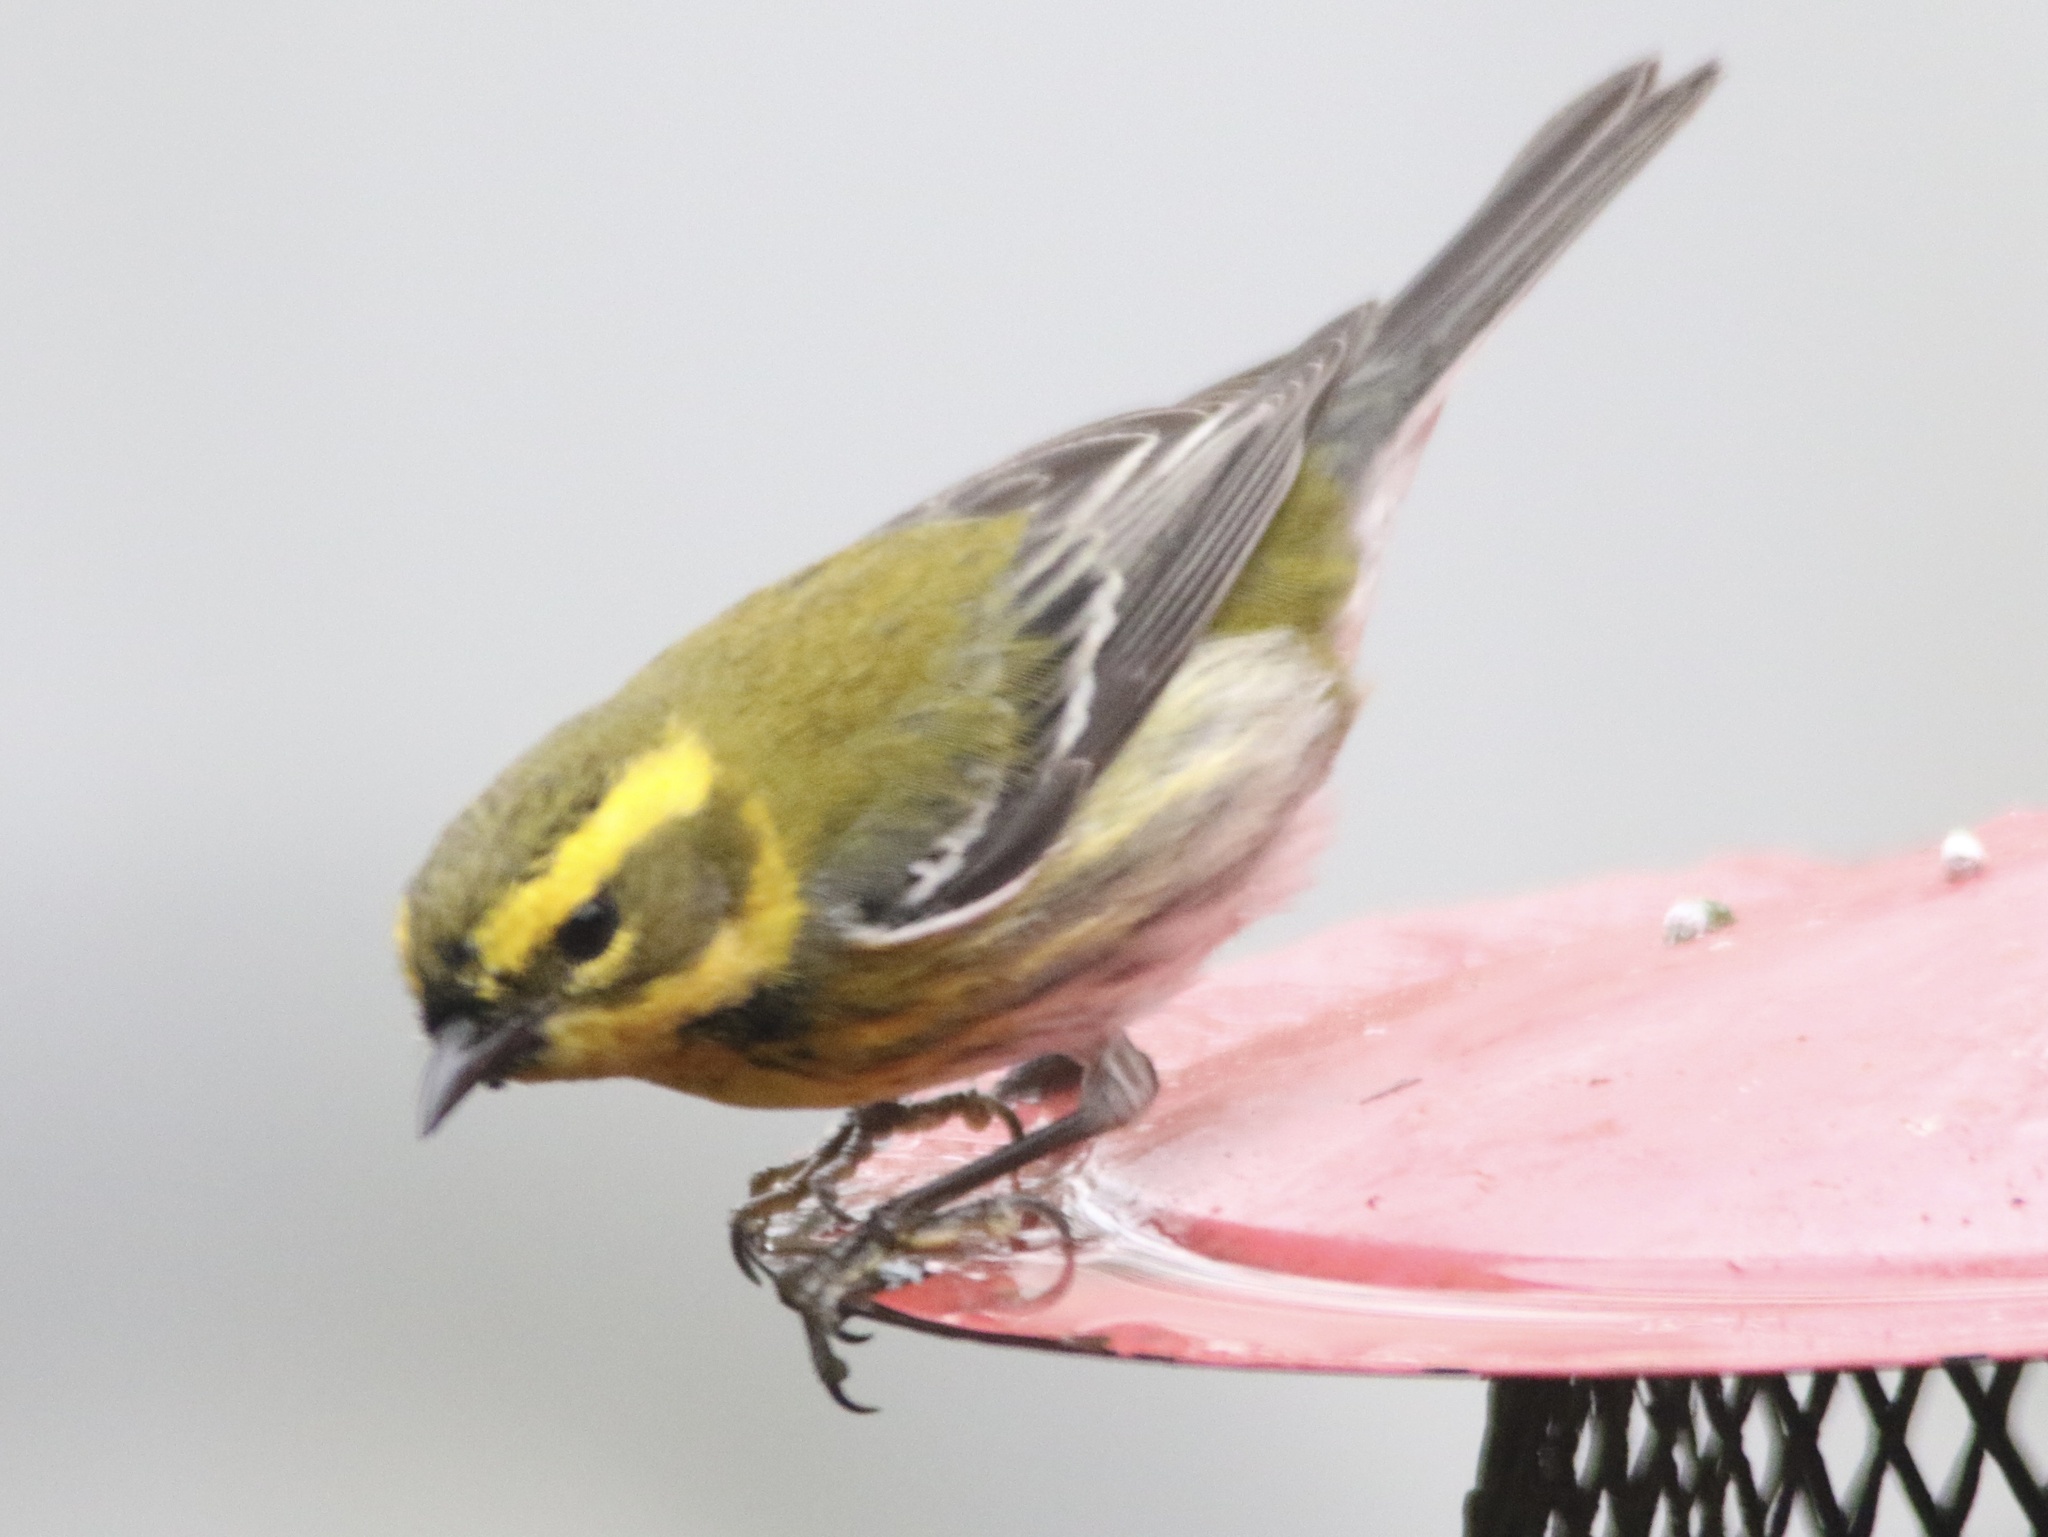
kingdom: Animalia
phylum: Chordata
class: Aves
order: Passeriformes
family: Parulidae
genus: Setophaga
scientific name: Setophaga townsendi
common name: Townsend's warbler
